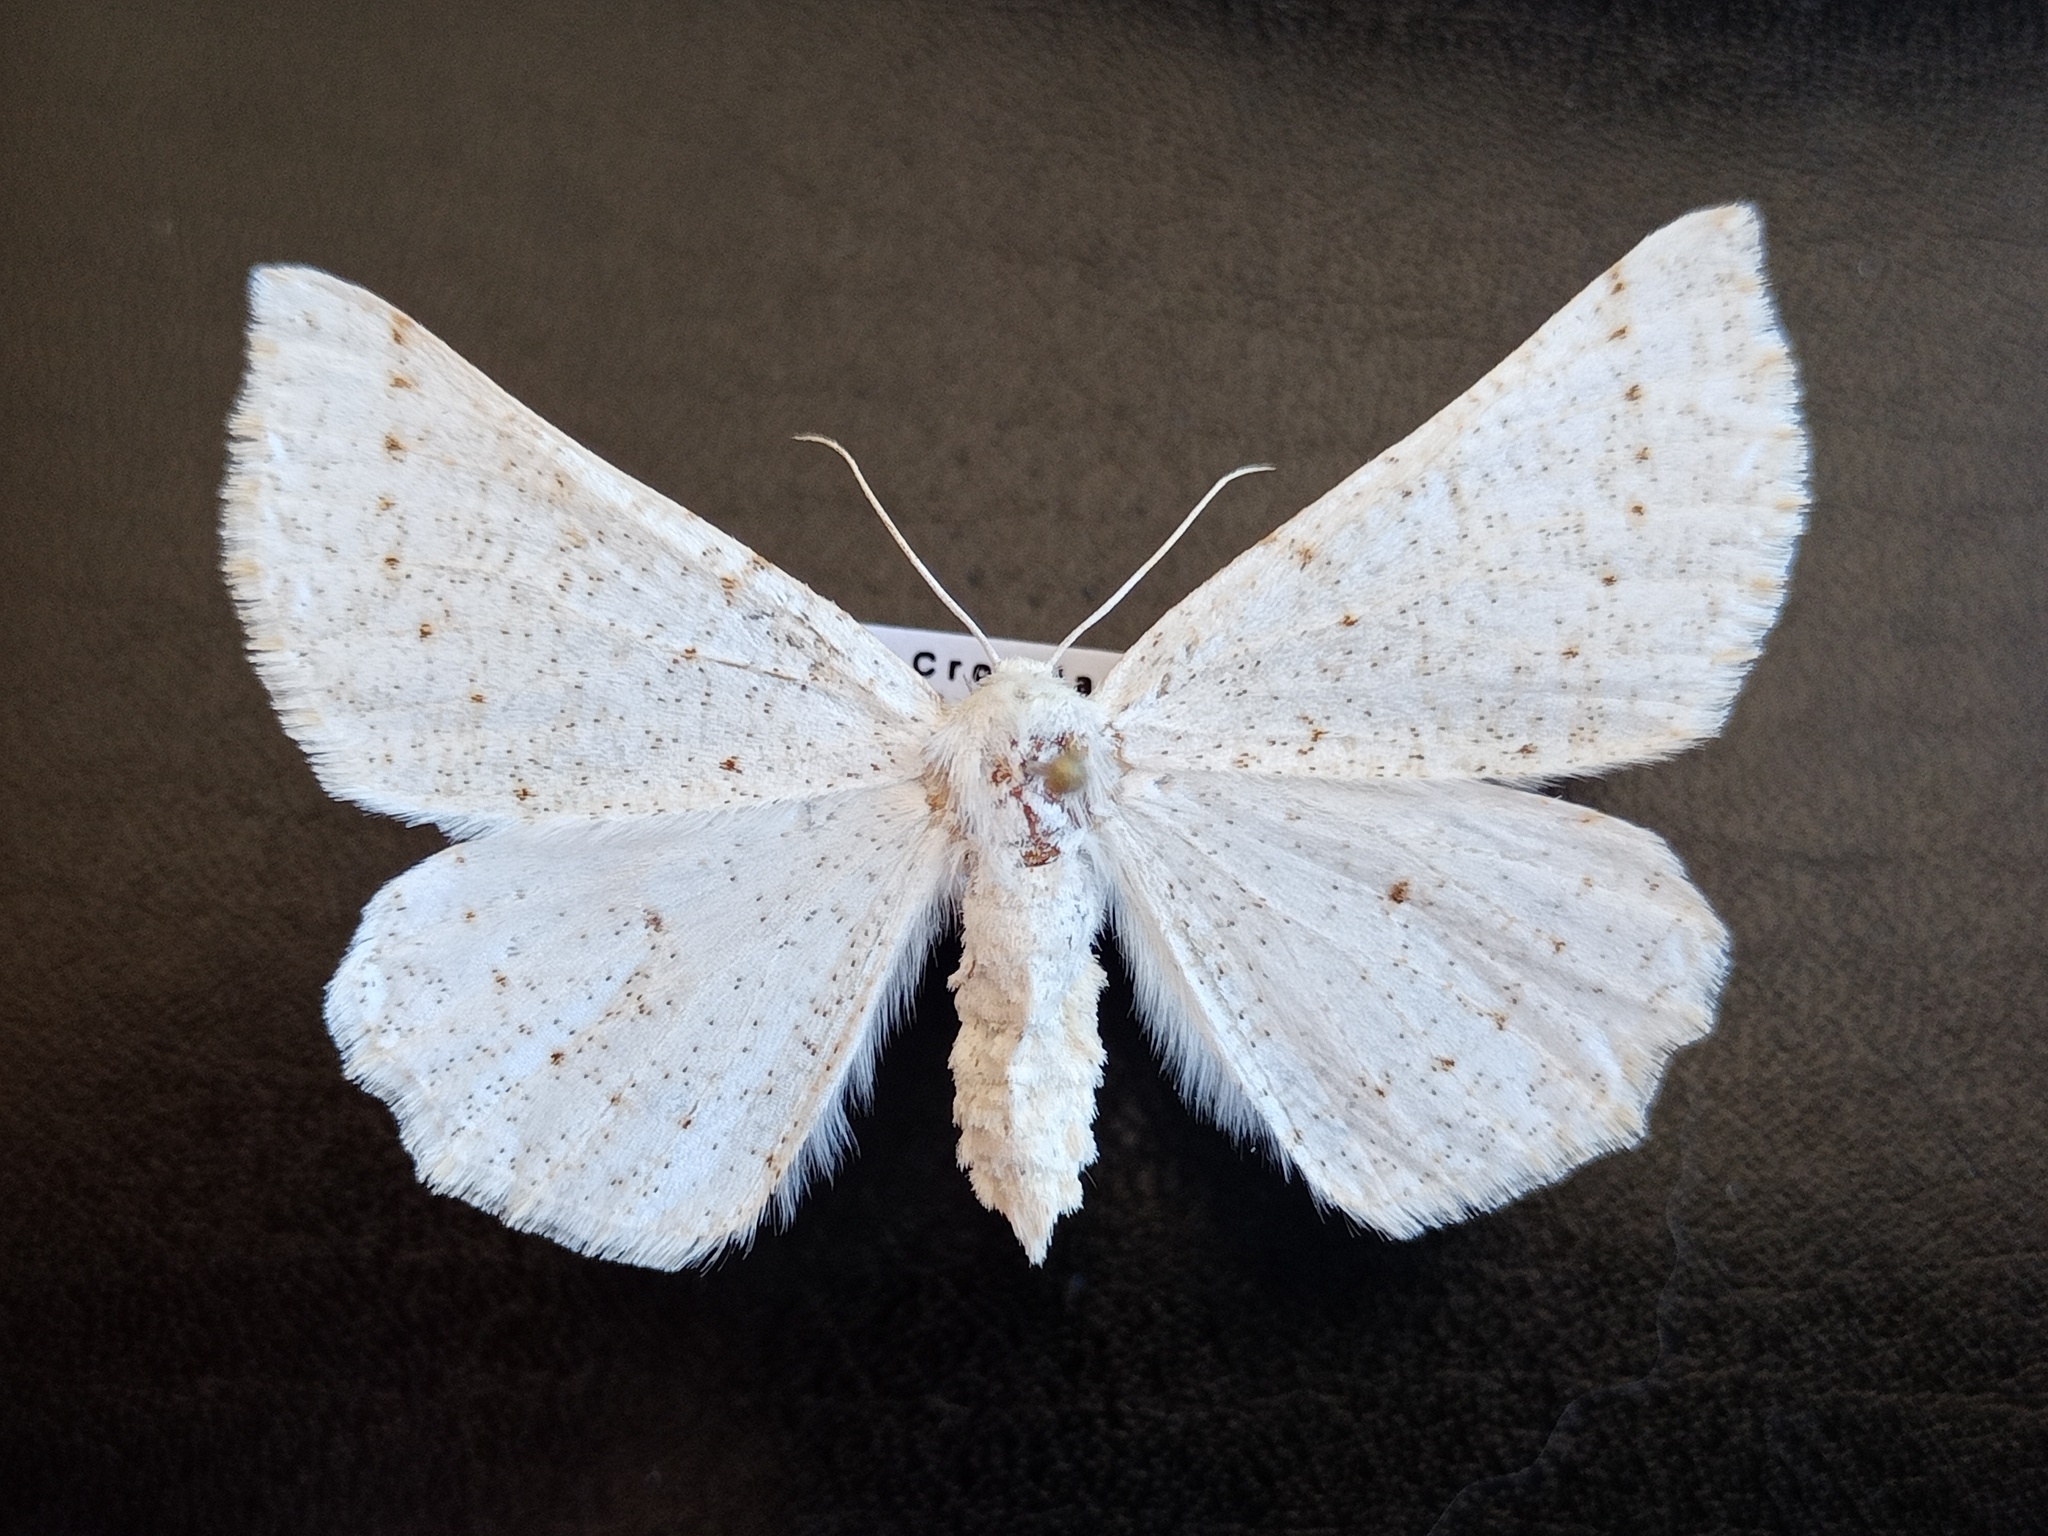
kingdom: Animalia
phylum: Arthropoda
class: Insecta
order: Lepidoptera
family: Geometridae
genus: Dyscia
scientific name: Dyscia innocentaria
